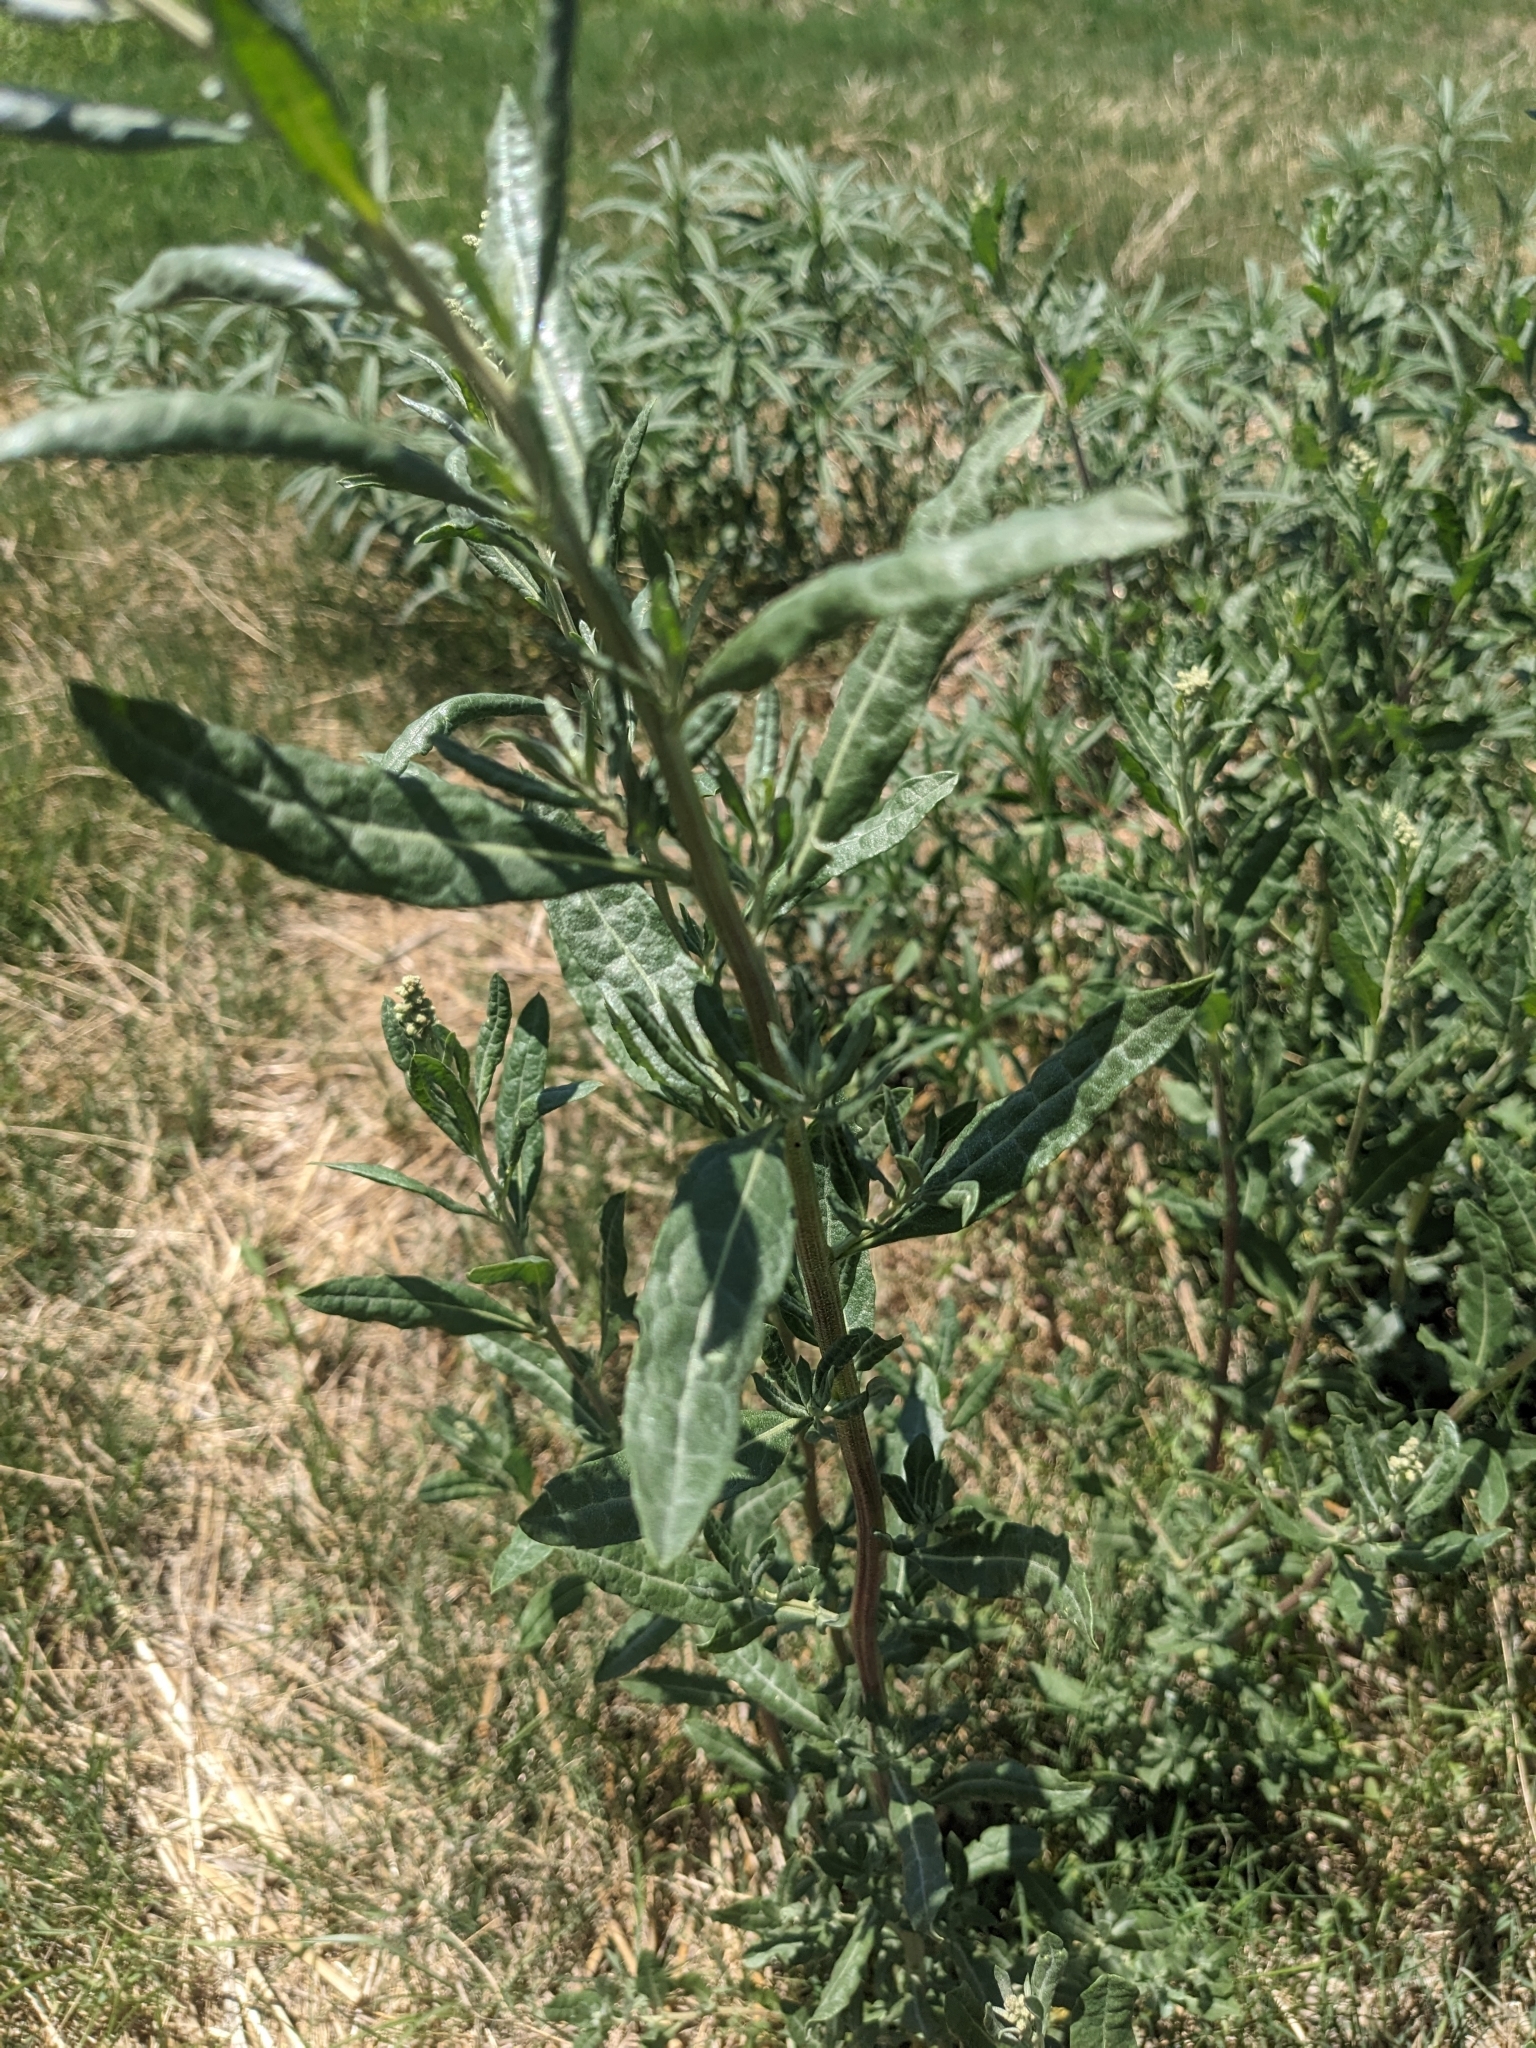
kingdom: Plantae
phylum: Tracheophyta
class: Magnoliopsida
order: Caryophyllales
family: Amaranthaceae
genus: Atriplex
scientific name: Atriplex wrightii
